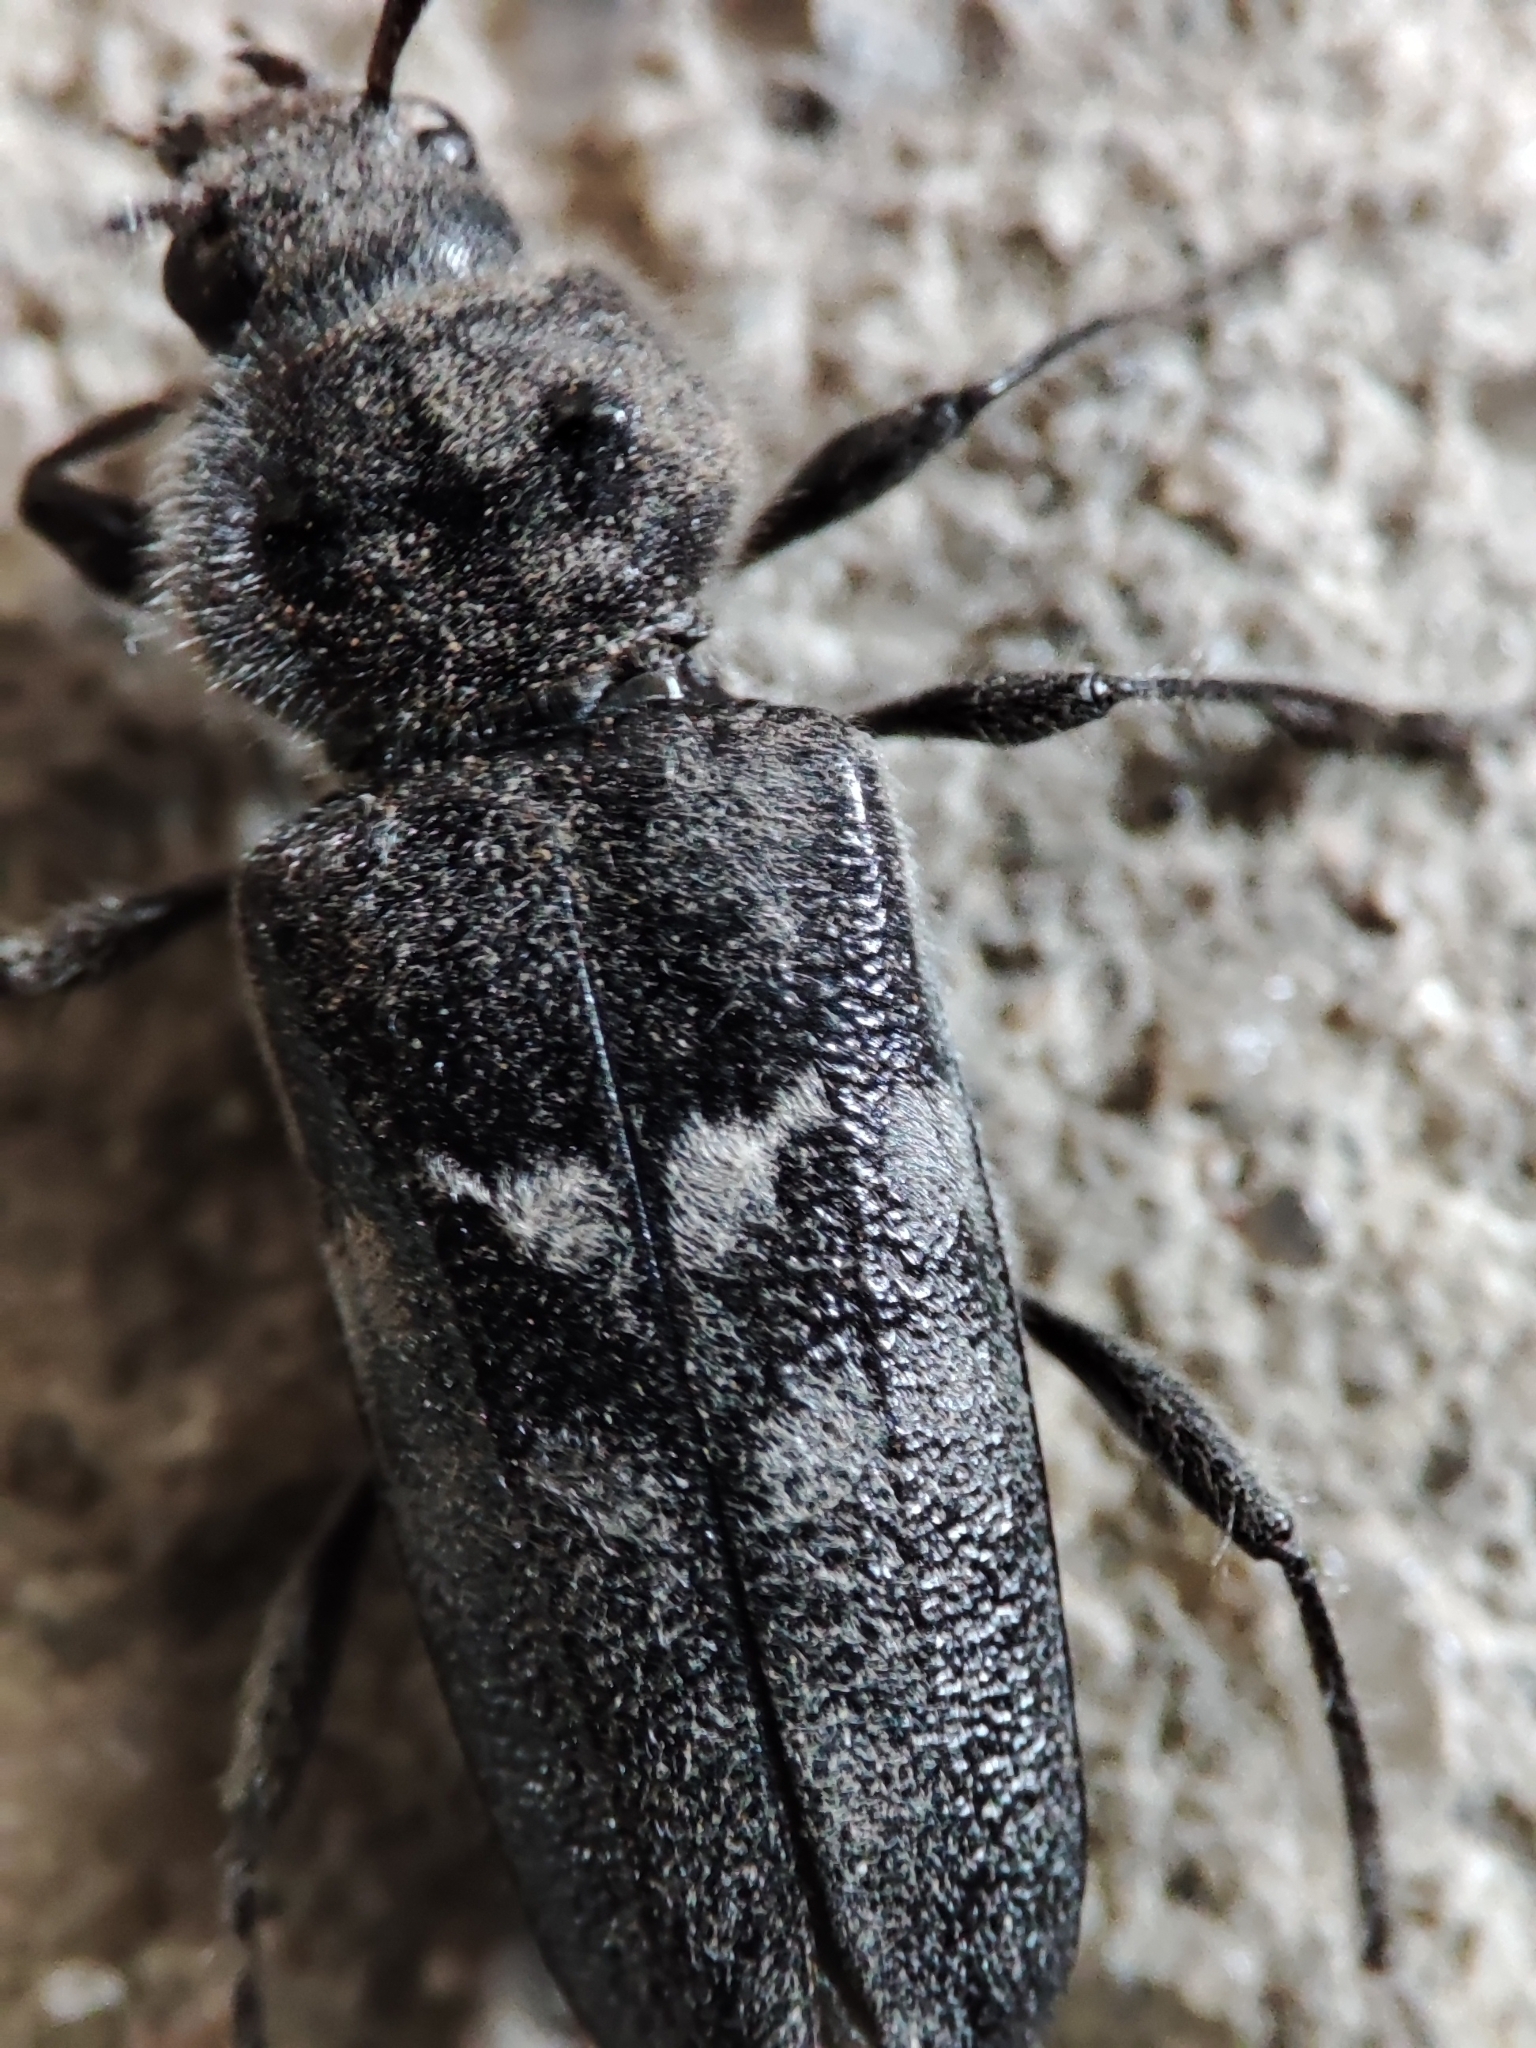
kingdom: Animalia
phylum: Arthropoda
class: Insecta
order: Coleoptera
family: Cerambycidae
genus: Hylotrupes
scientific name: Hylotrupes bajulus
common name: Old house borer
